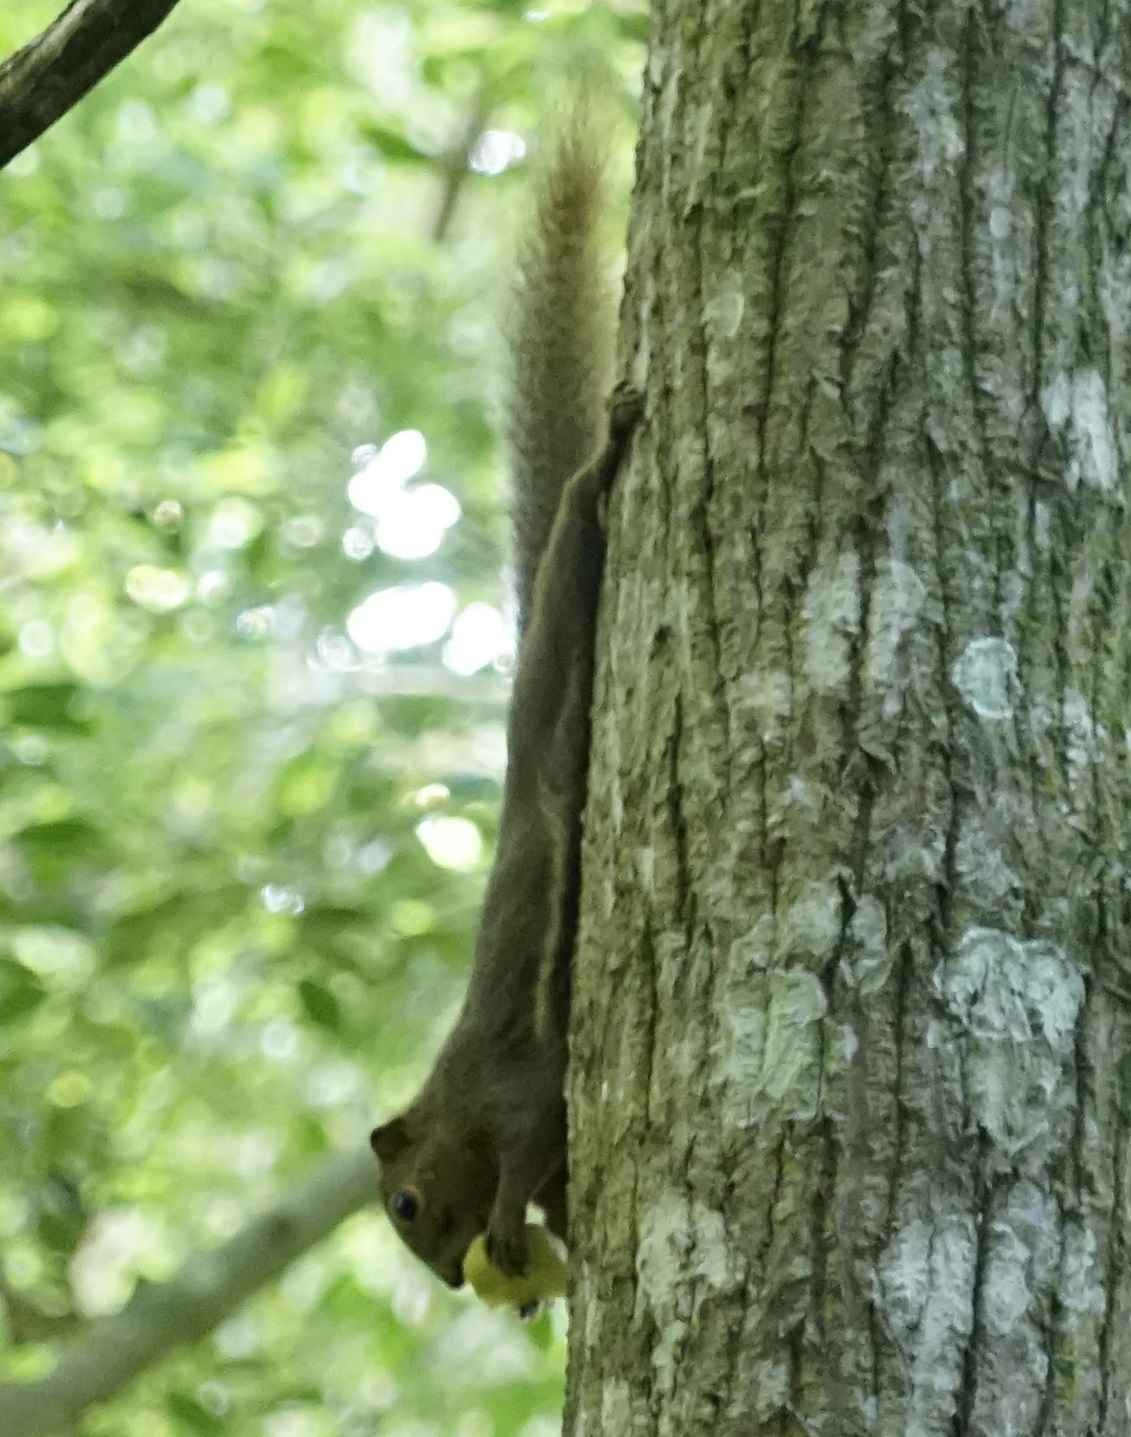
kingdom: Animalia
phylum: Chordata
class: Mammalia
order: Rodentia
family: Sciuridae
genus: Callosciurus
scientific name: Callosciurus notatus
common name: Plantain squirrel
